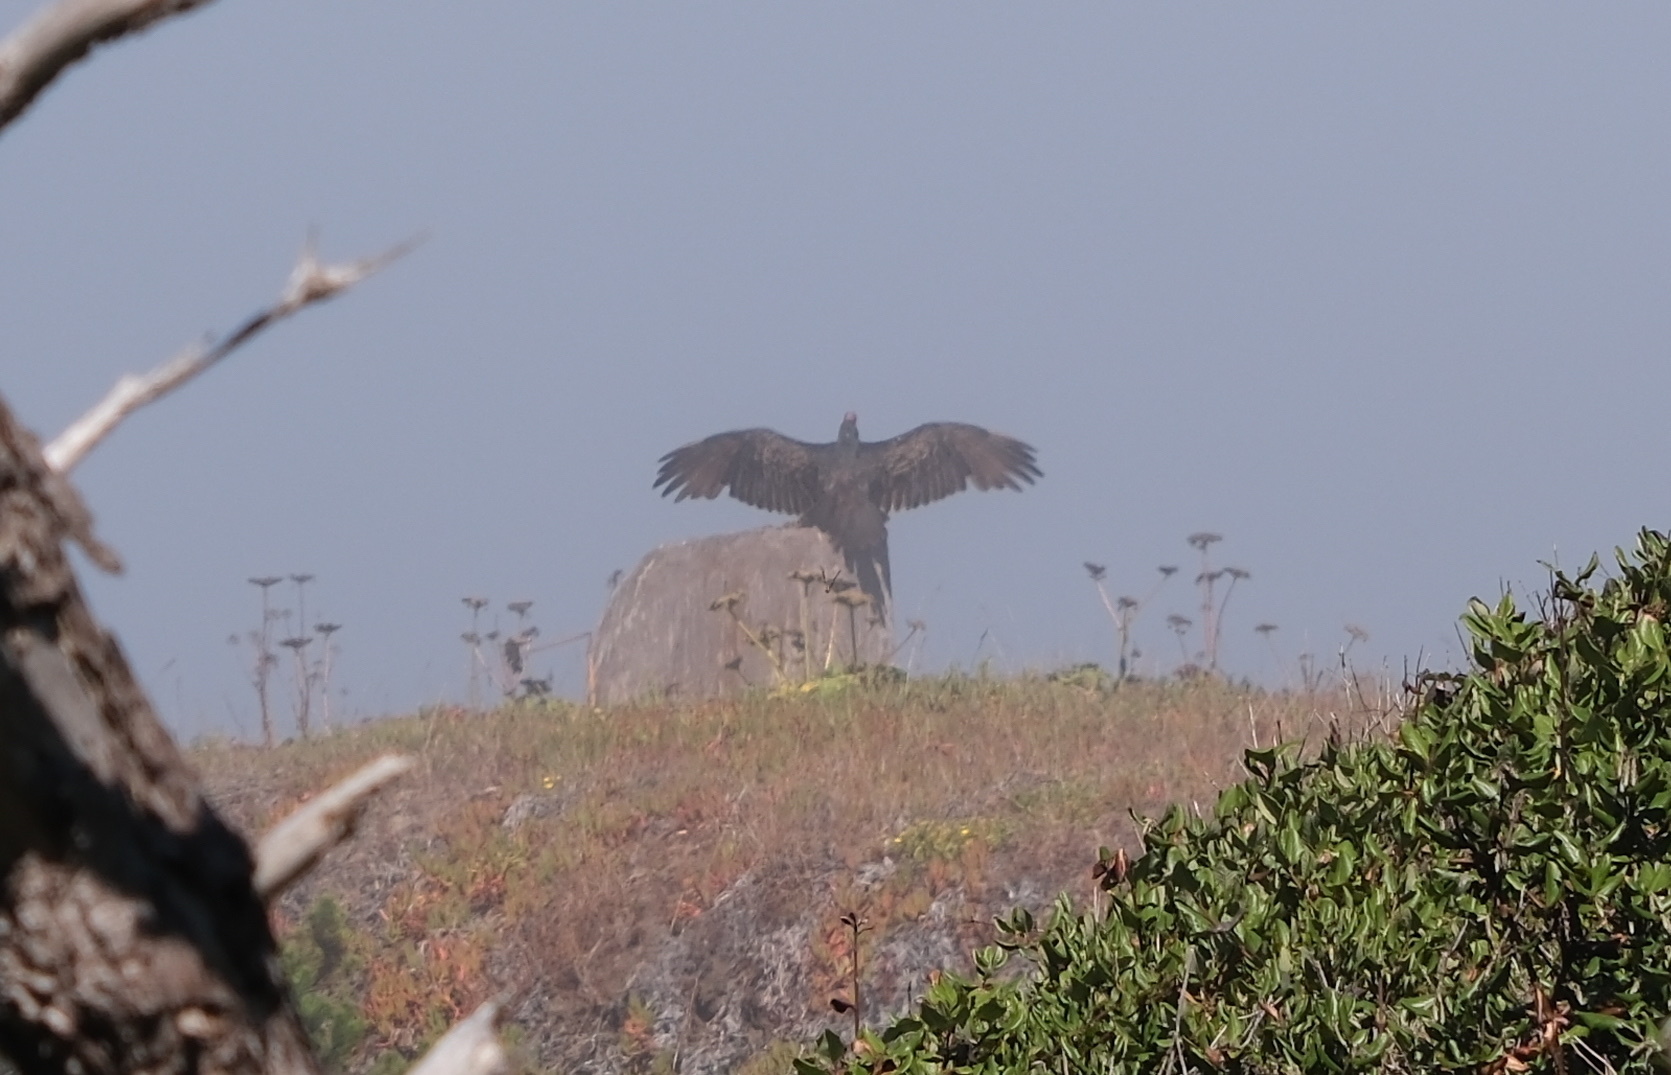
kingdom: Animalia
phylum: Chordata
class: Aves
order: Accipitriformes
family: Cathartidae
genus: Cathartes
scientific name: Cathartes aura
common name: Turkey vulture
